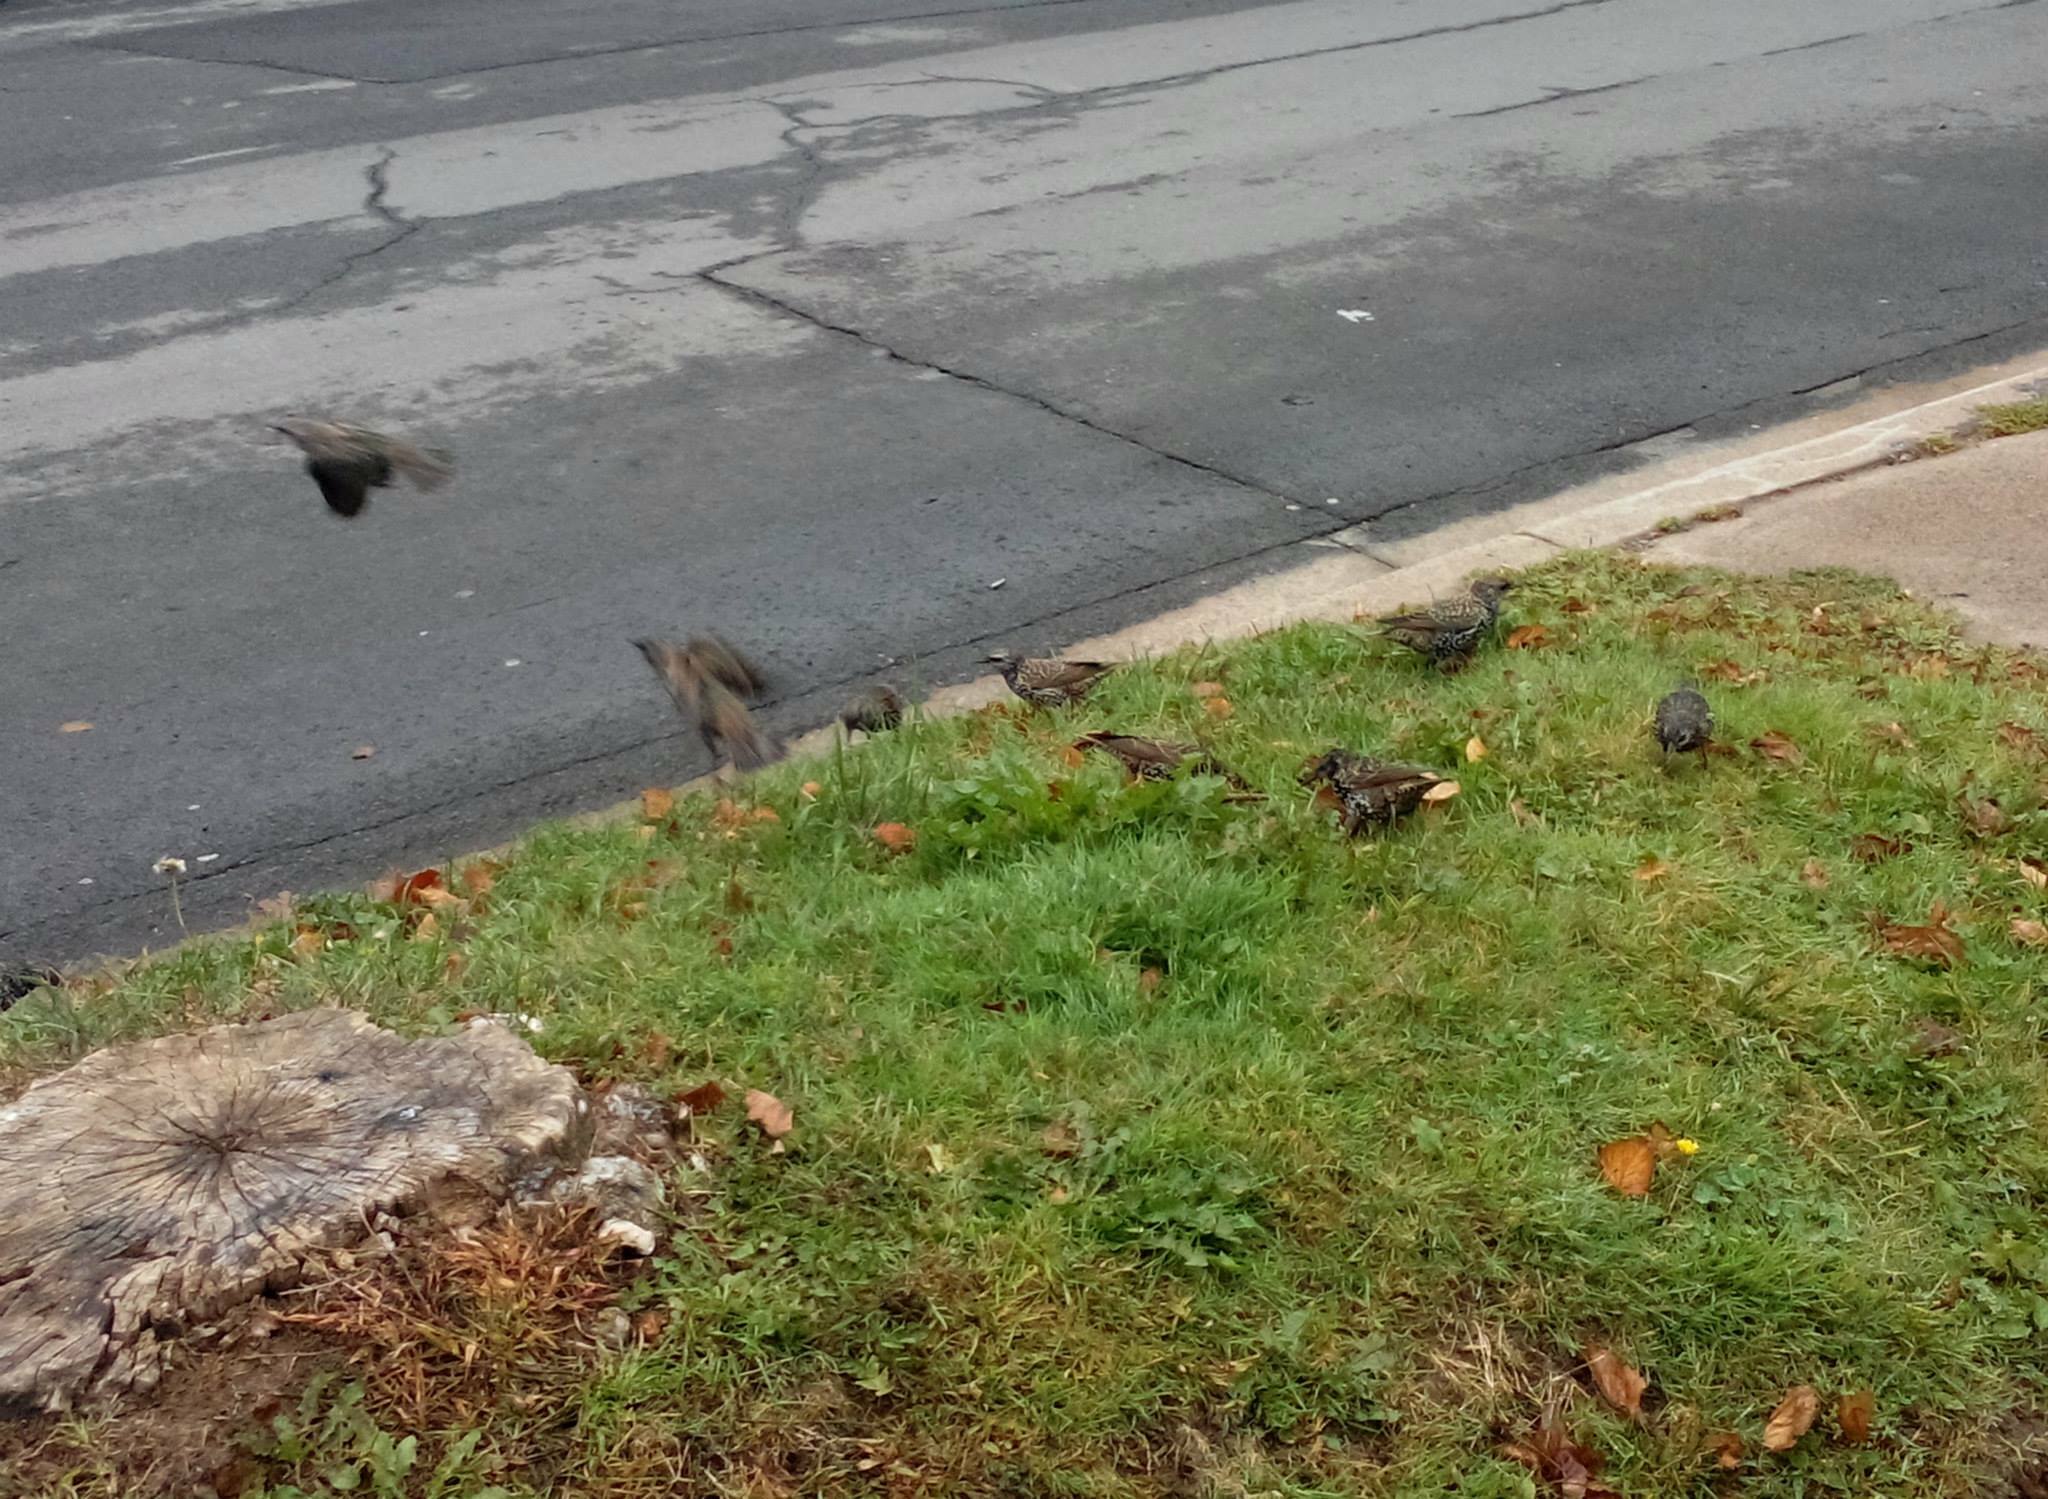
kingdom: Animalia
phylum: Chordata
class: Aves
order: Passeriformes
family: Sturnidae
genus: Sturnus
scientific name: Sturnus vulgaris
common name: Common starling
